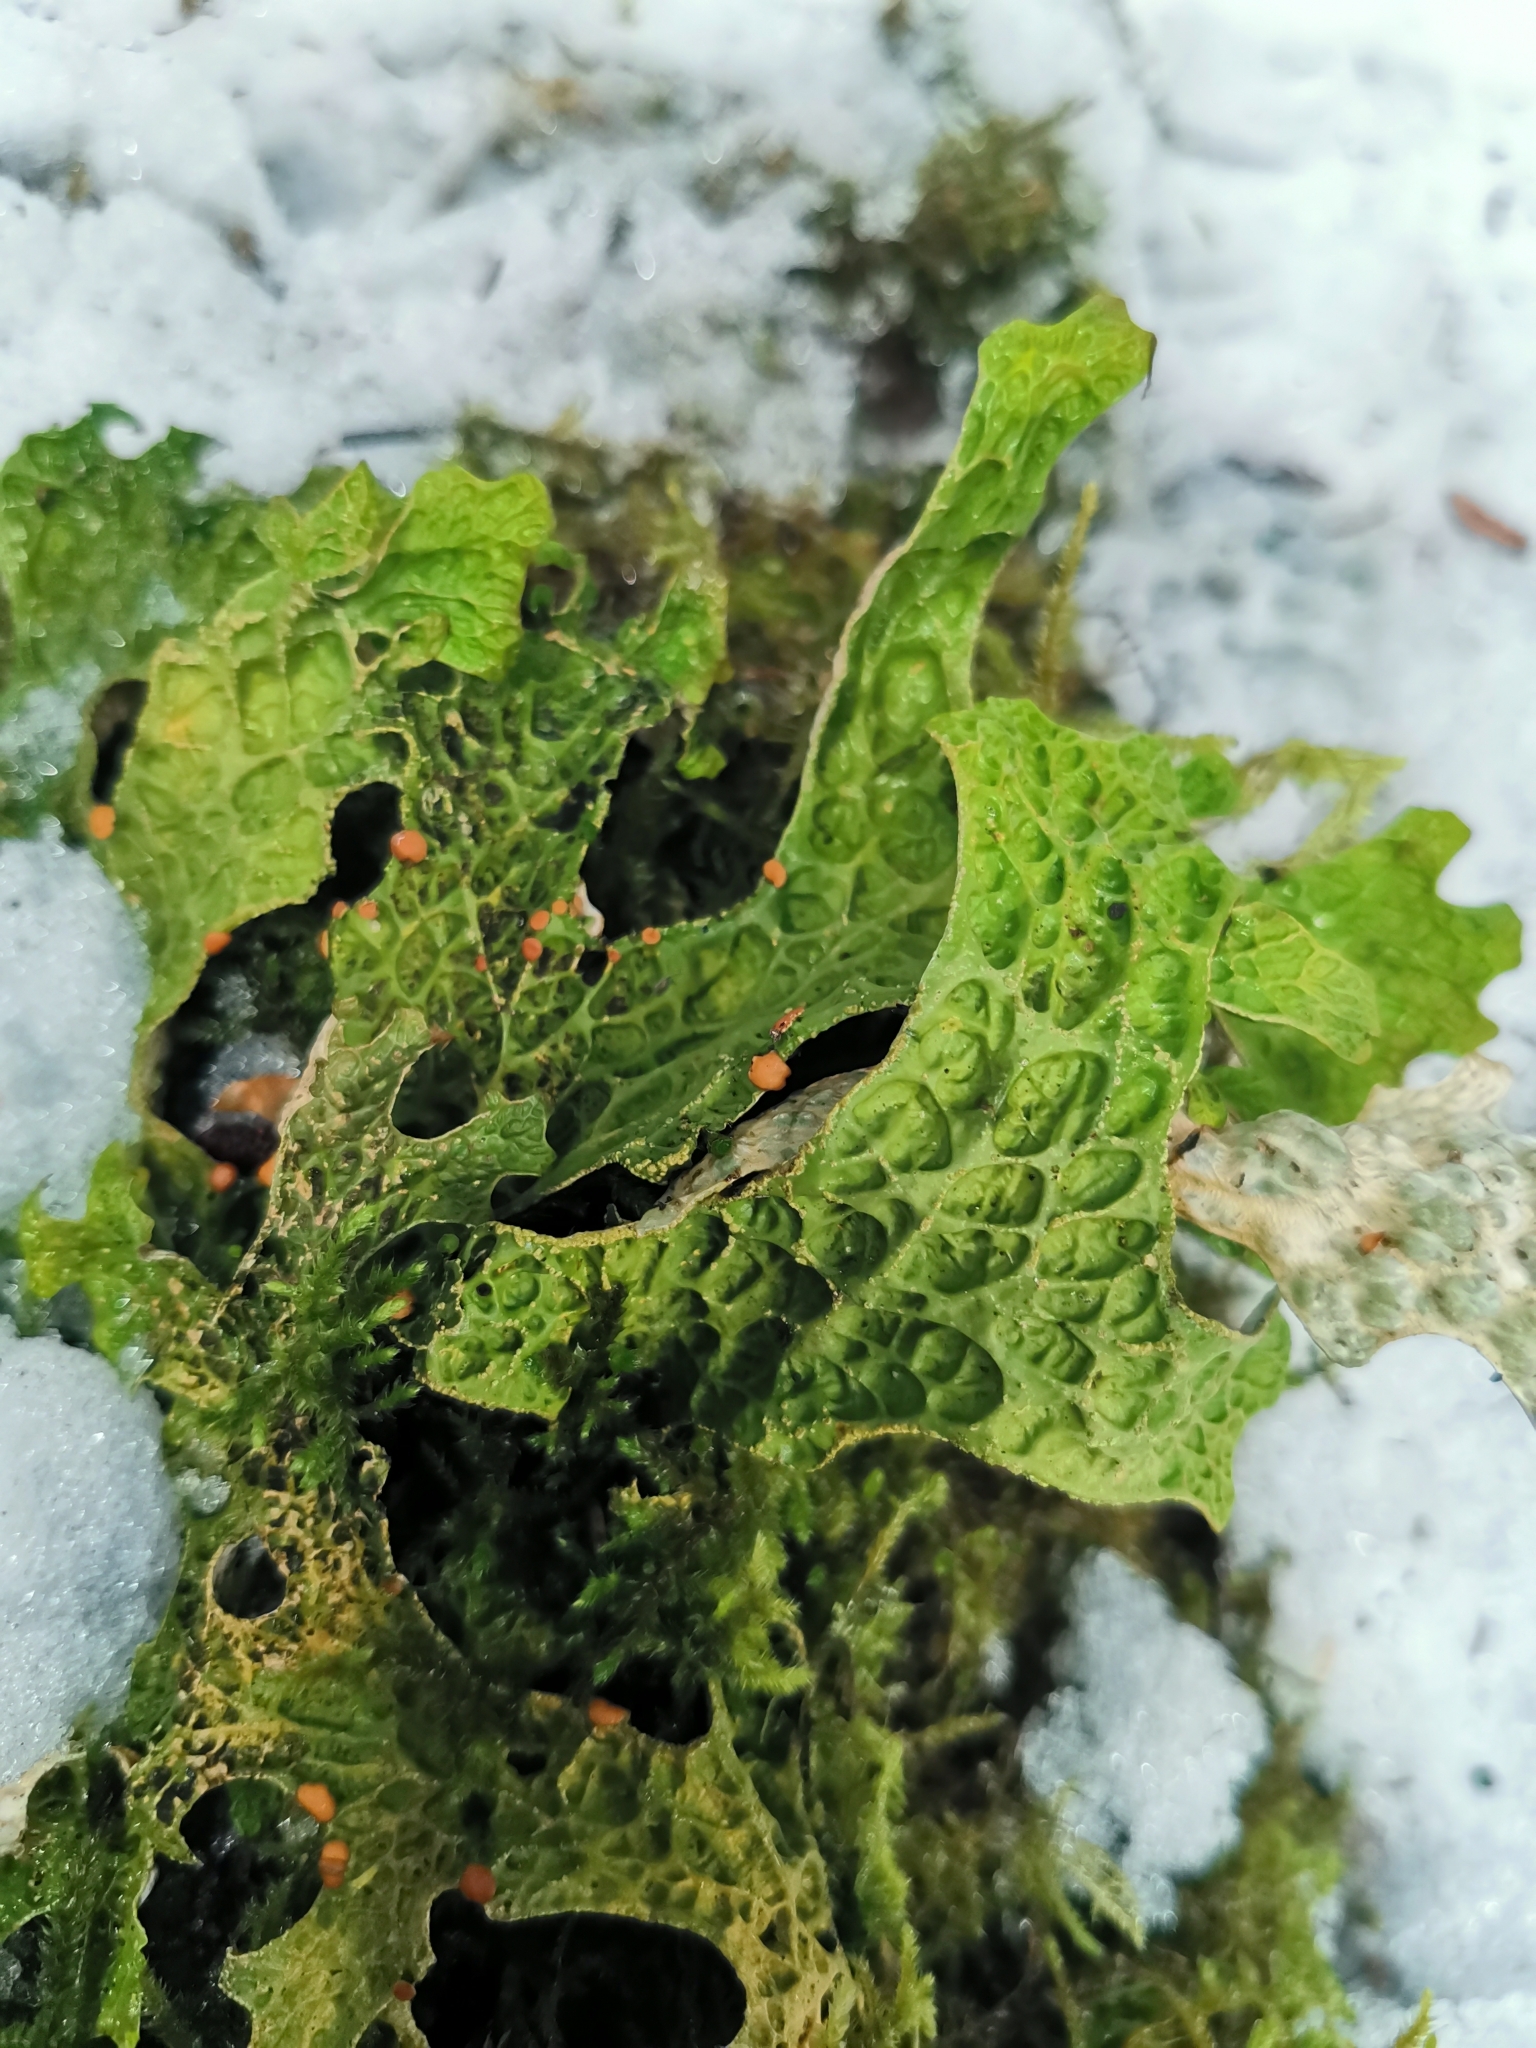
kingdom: Fungi
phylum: Ascomycota
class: Lecanoromycetes
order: Peltigerales
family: Lobariaceae
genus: Lobaria
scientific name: Lobaria pulmonaria
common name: Lungwort
